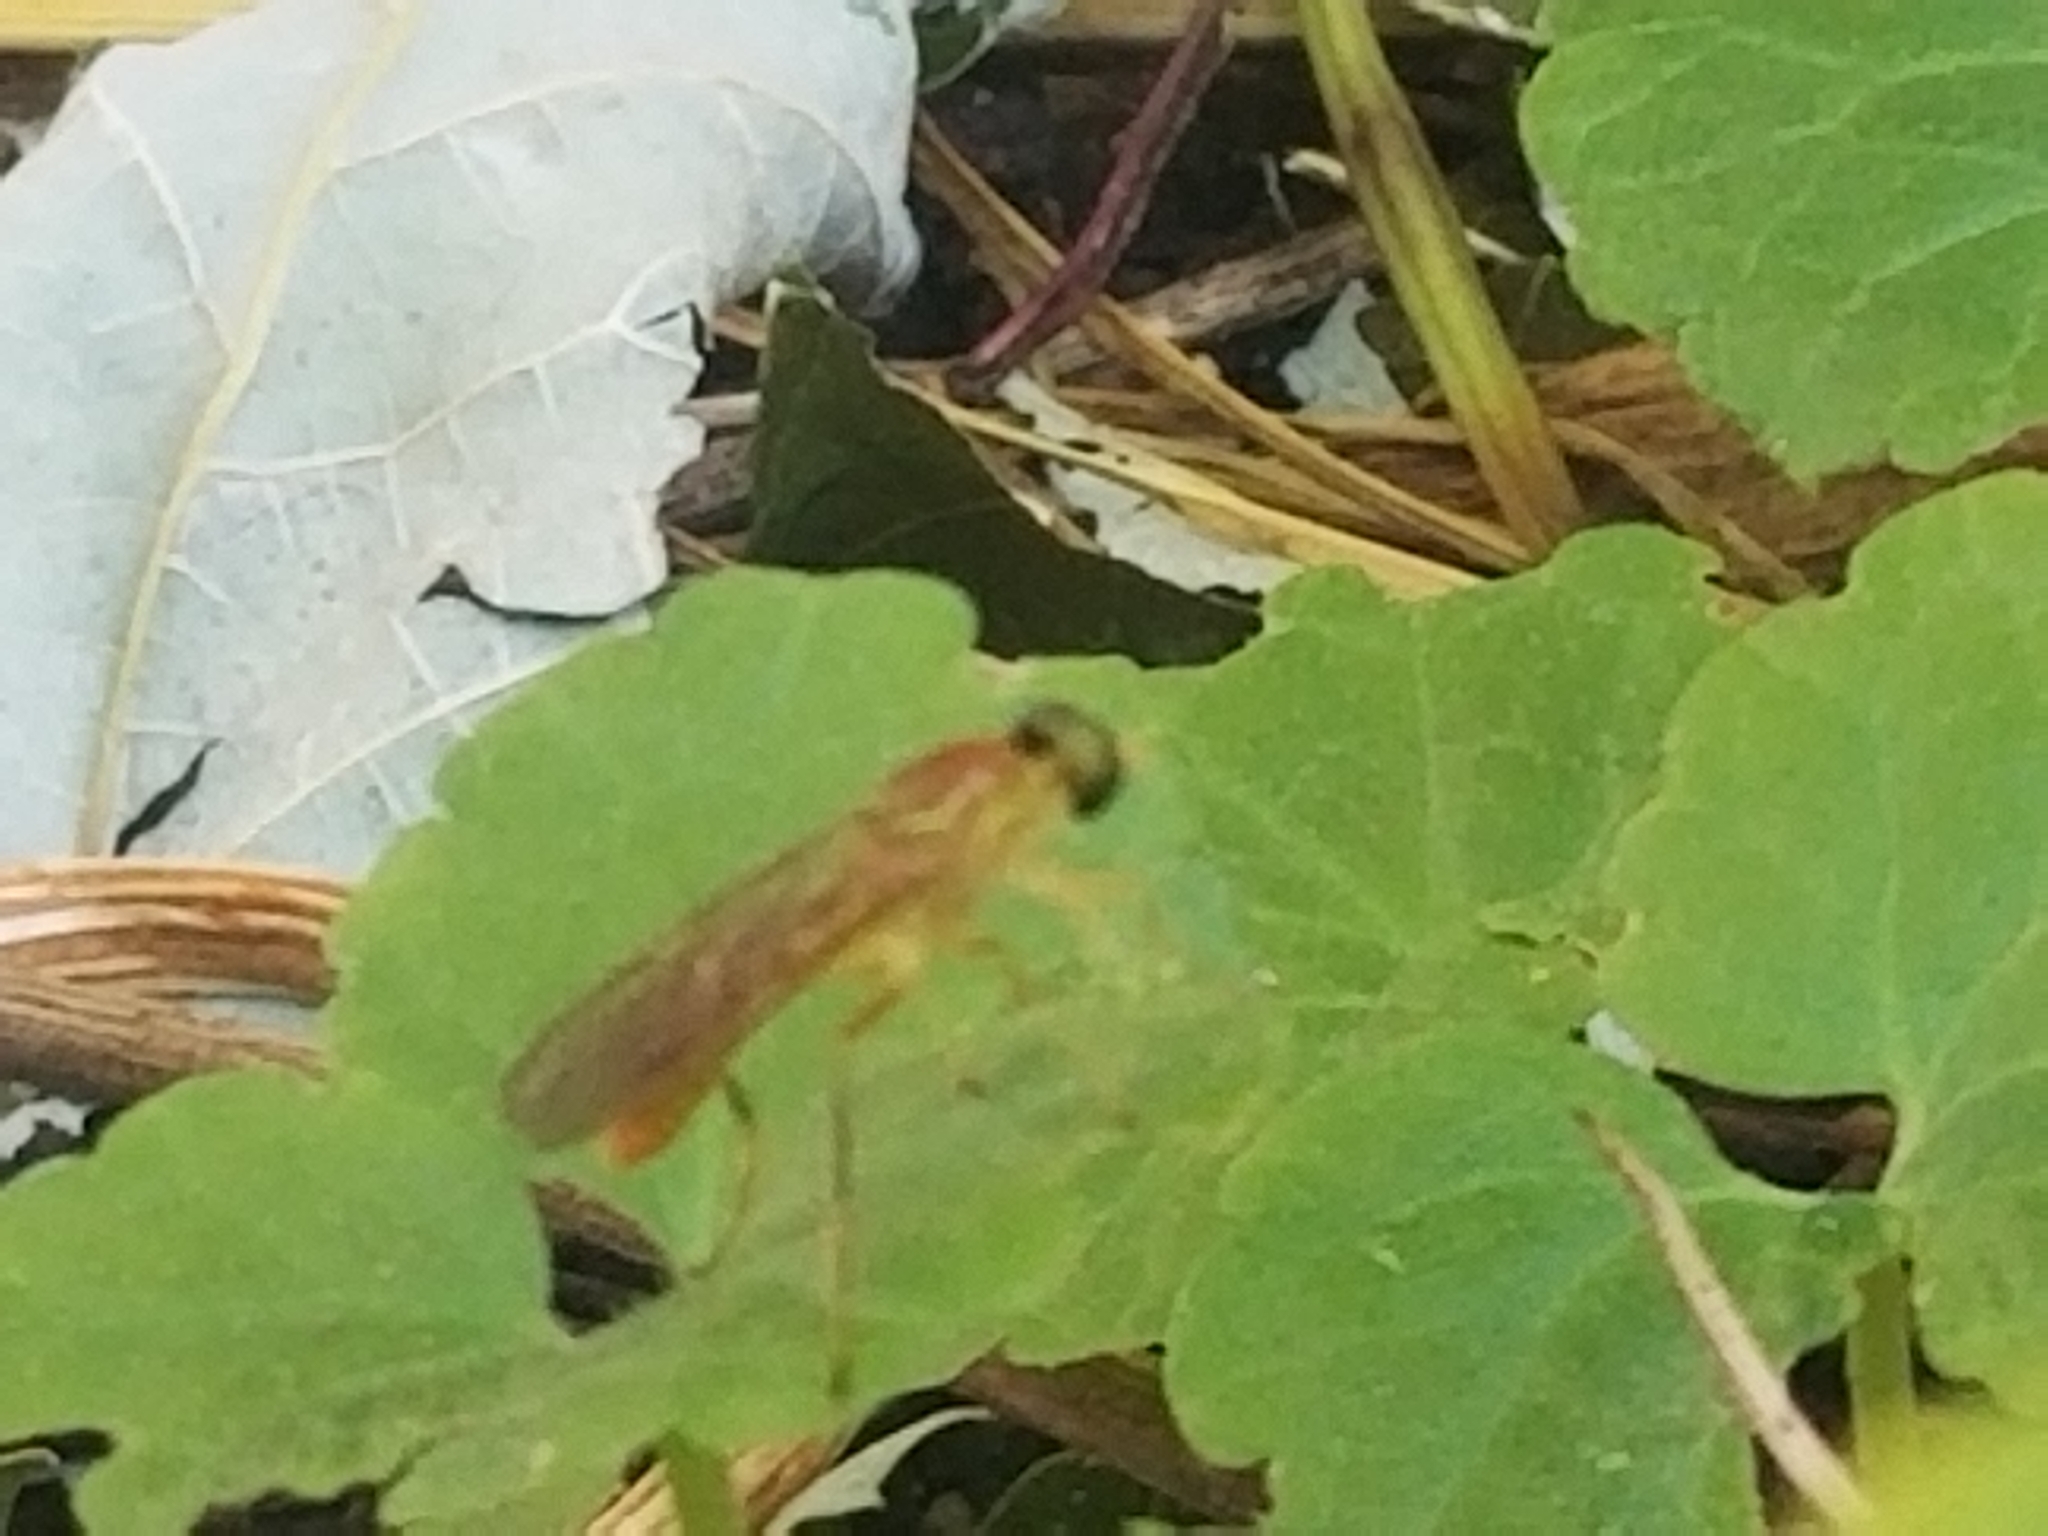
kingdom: Animalia
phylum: Arthropoda
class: Insecta
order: Diptera
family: Stratiomyidae
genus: Ptecticus
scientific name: Ptecticus trivittatus
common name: Compost fly
